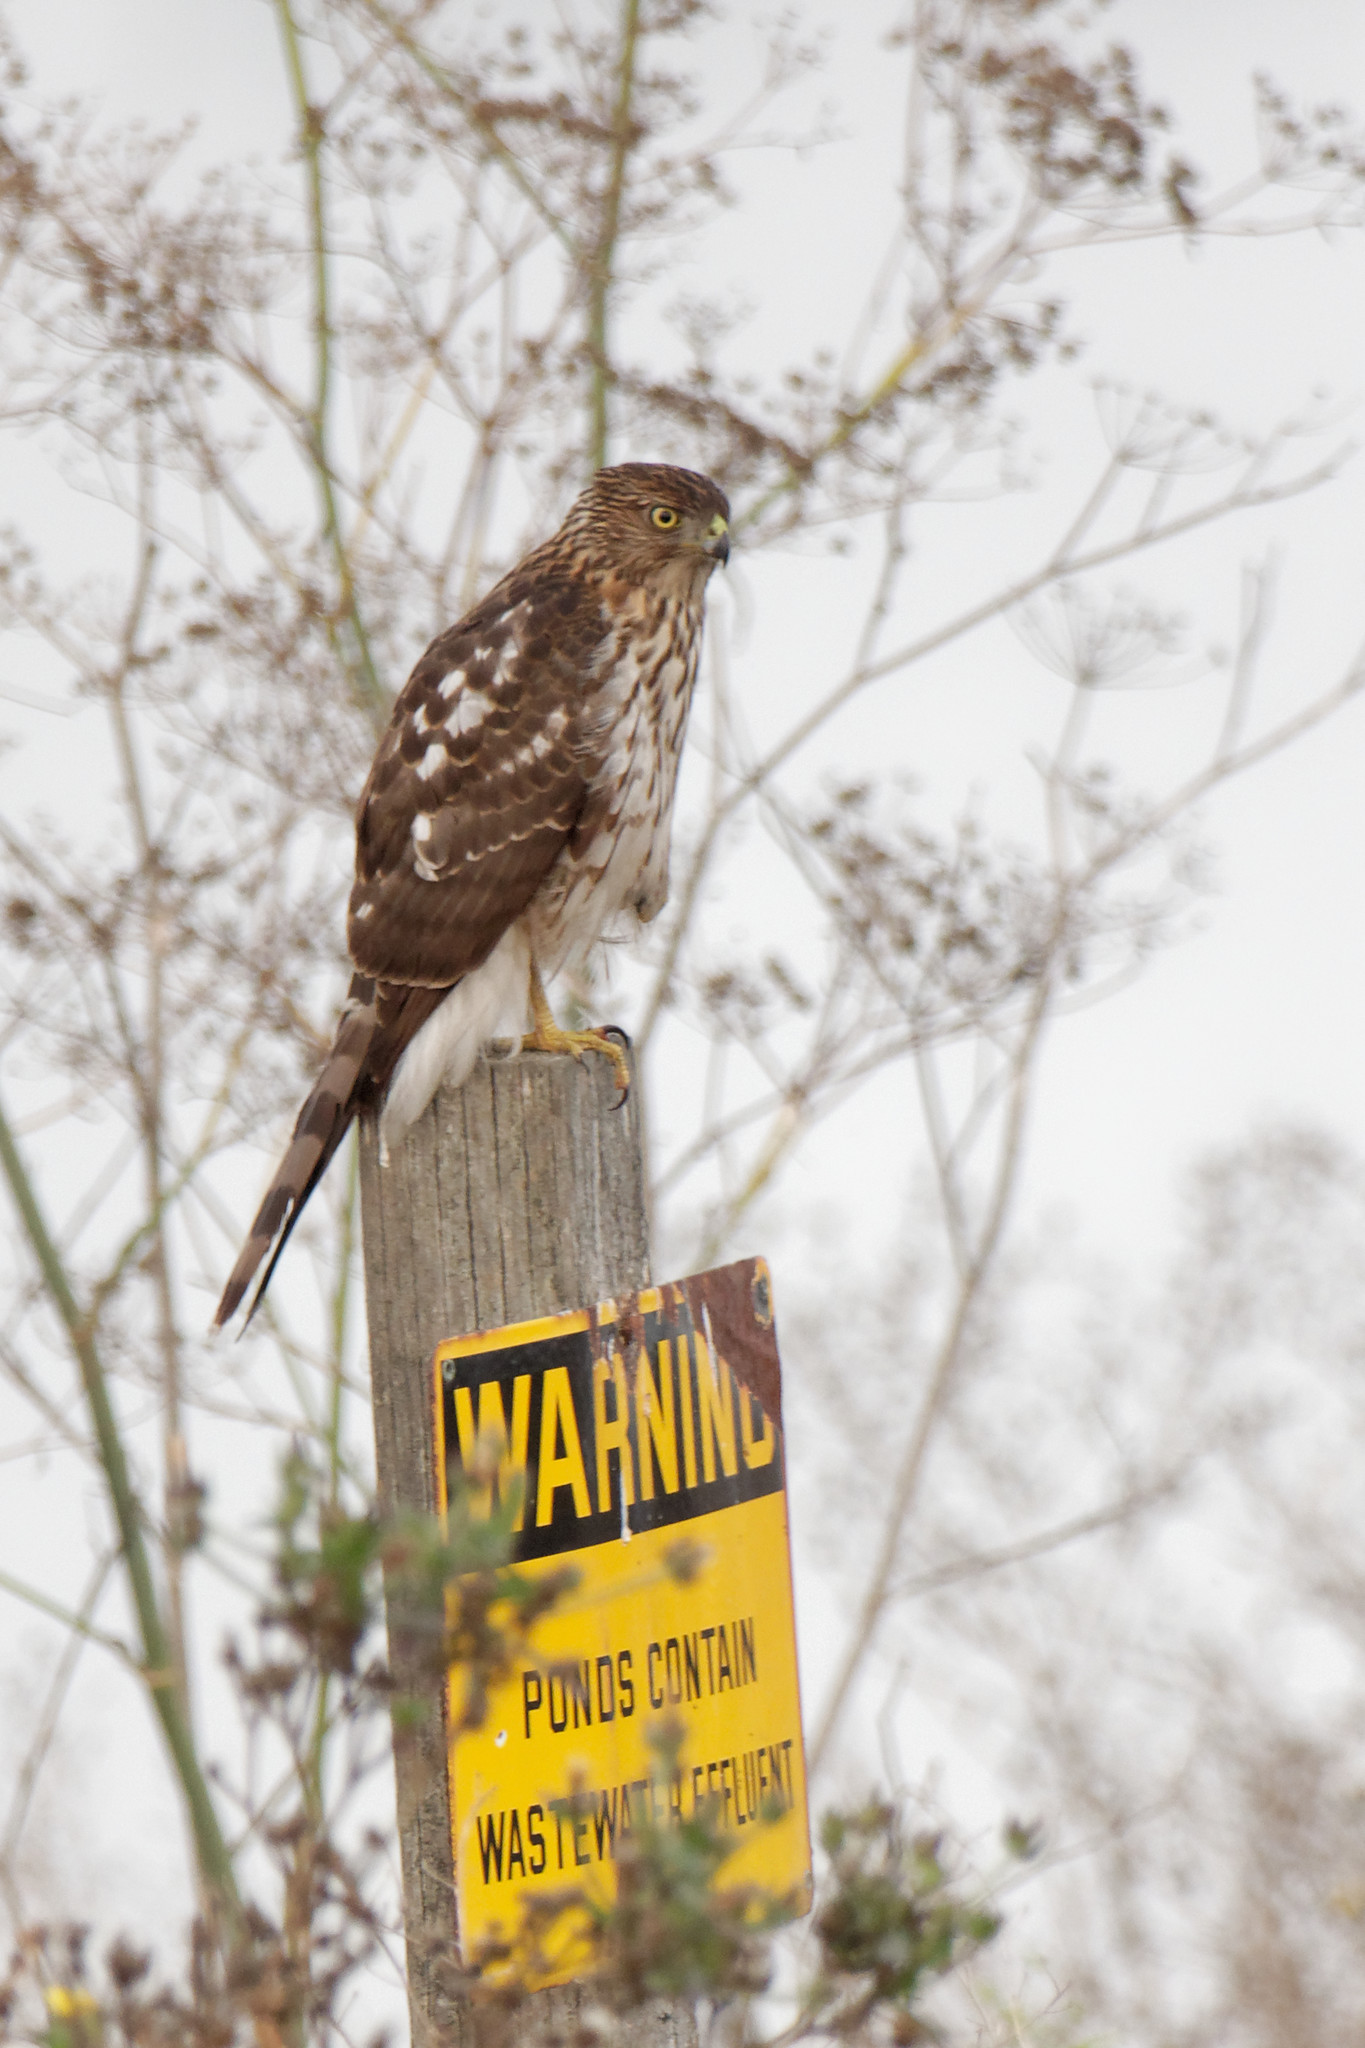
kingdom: Animalia
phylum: Chordata
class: Aves
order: Accipitriformes
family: Accipitridae
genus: Accipiter
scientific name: Accipiter cooperii
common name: Cooper's hawk
